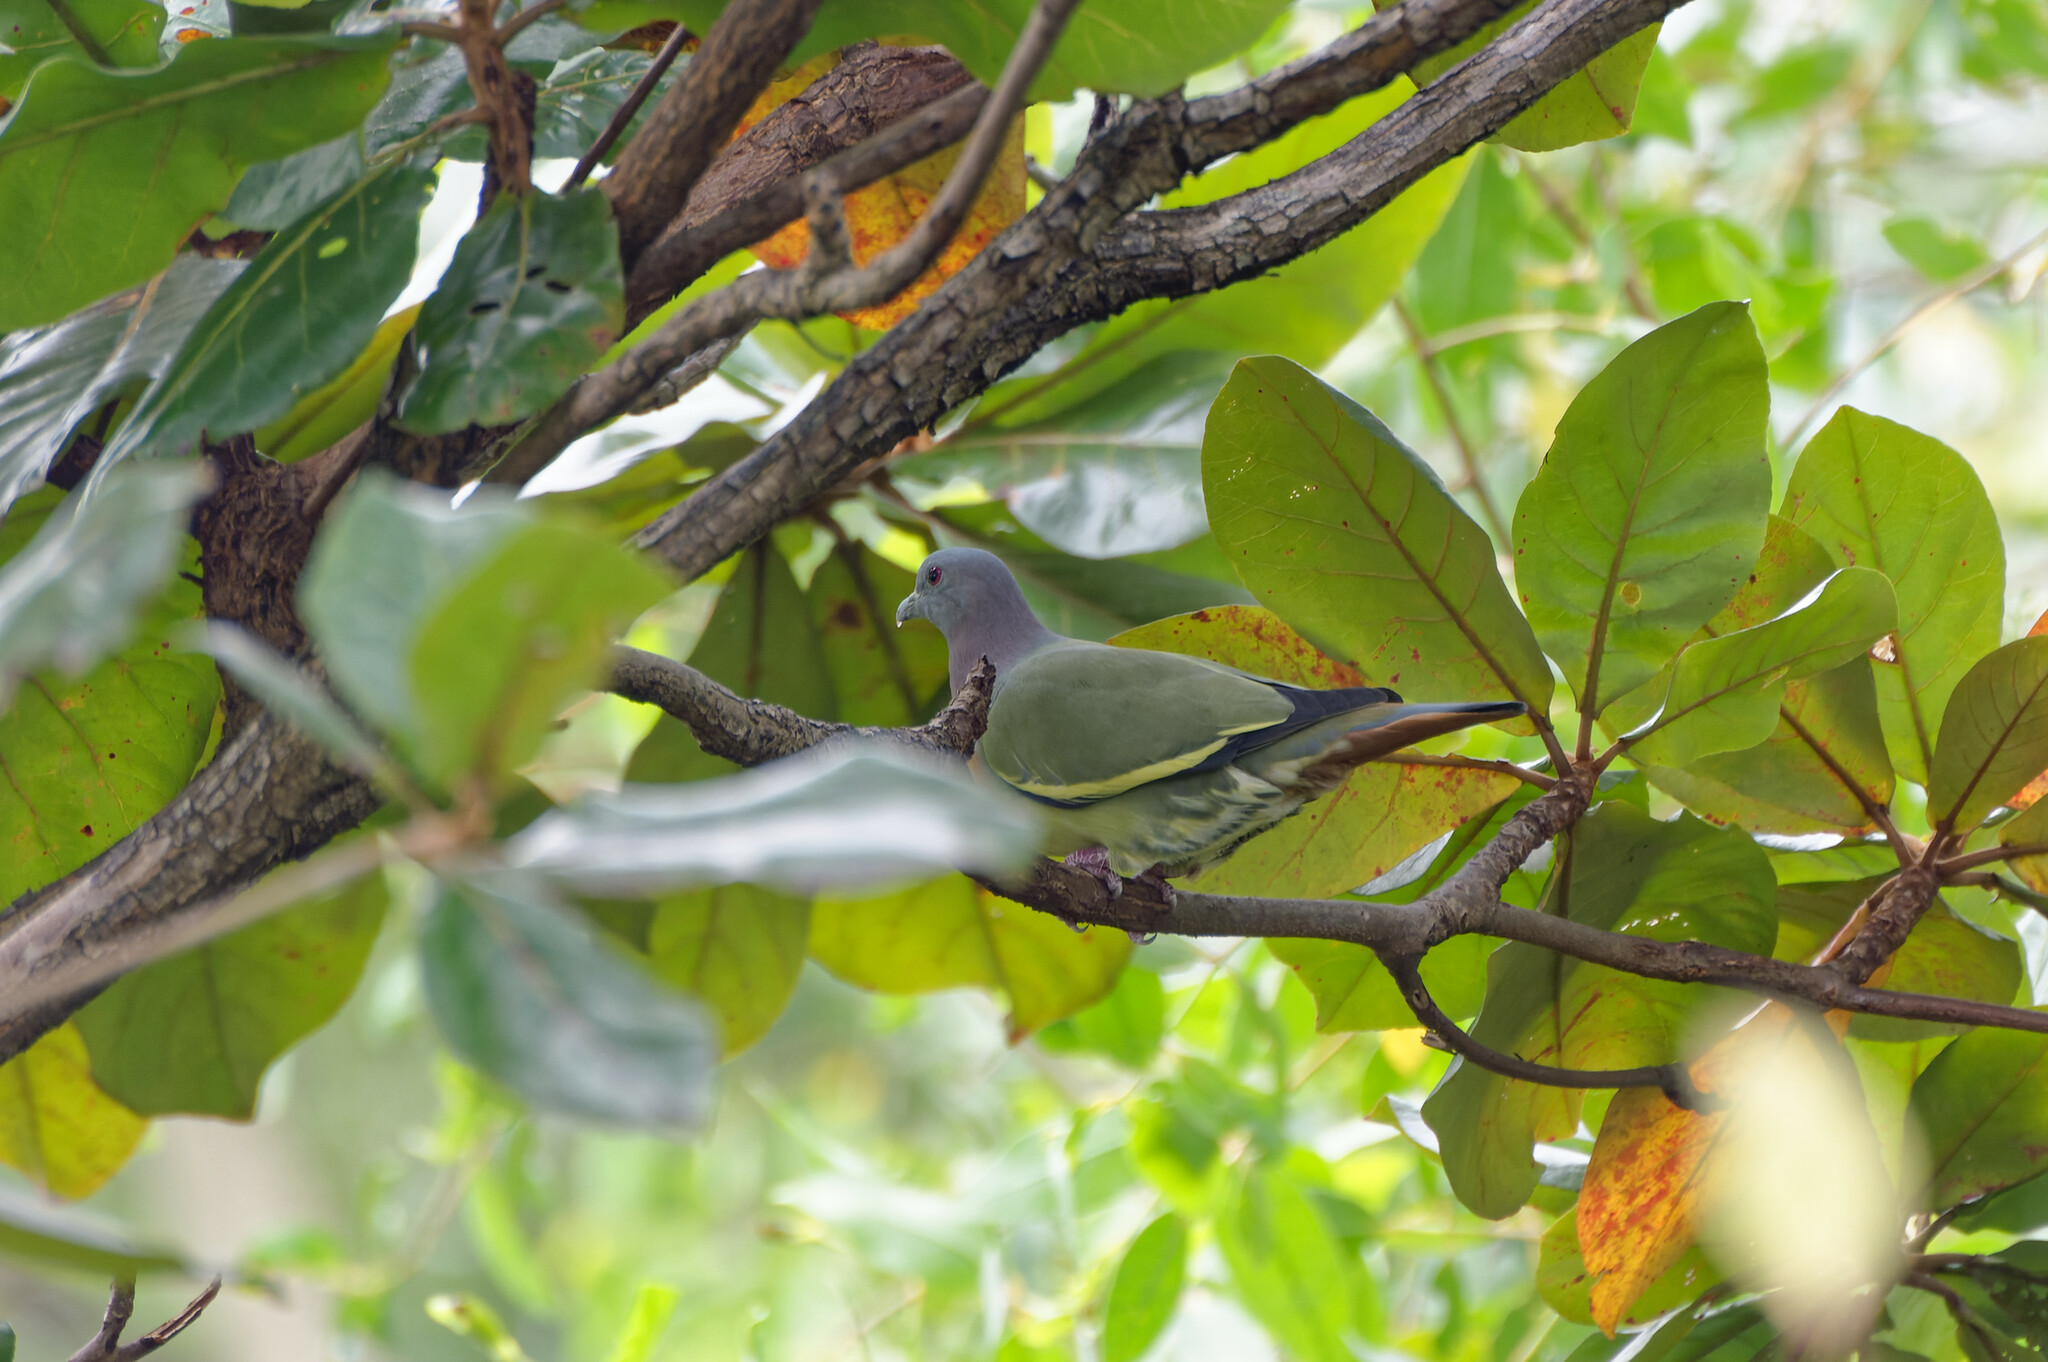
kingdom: Animalia
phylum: Chordata
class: Aves
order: Columbiformes
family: Columbidae
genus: Treron
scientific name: Treron vernans
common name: Pink-necked green pigeon
